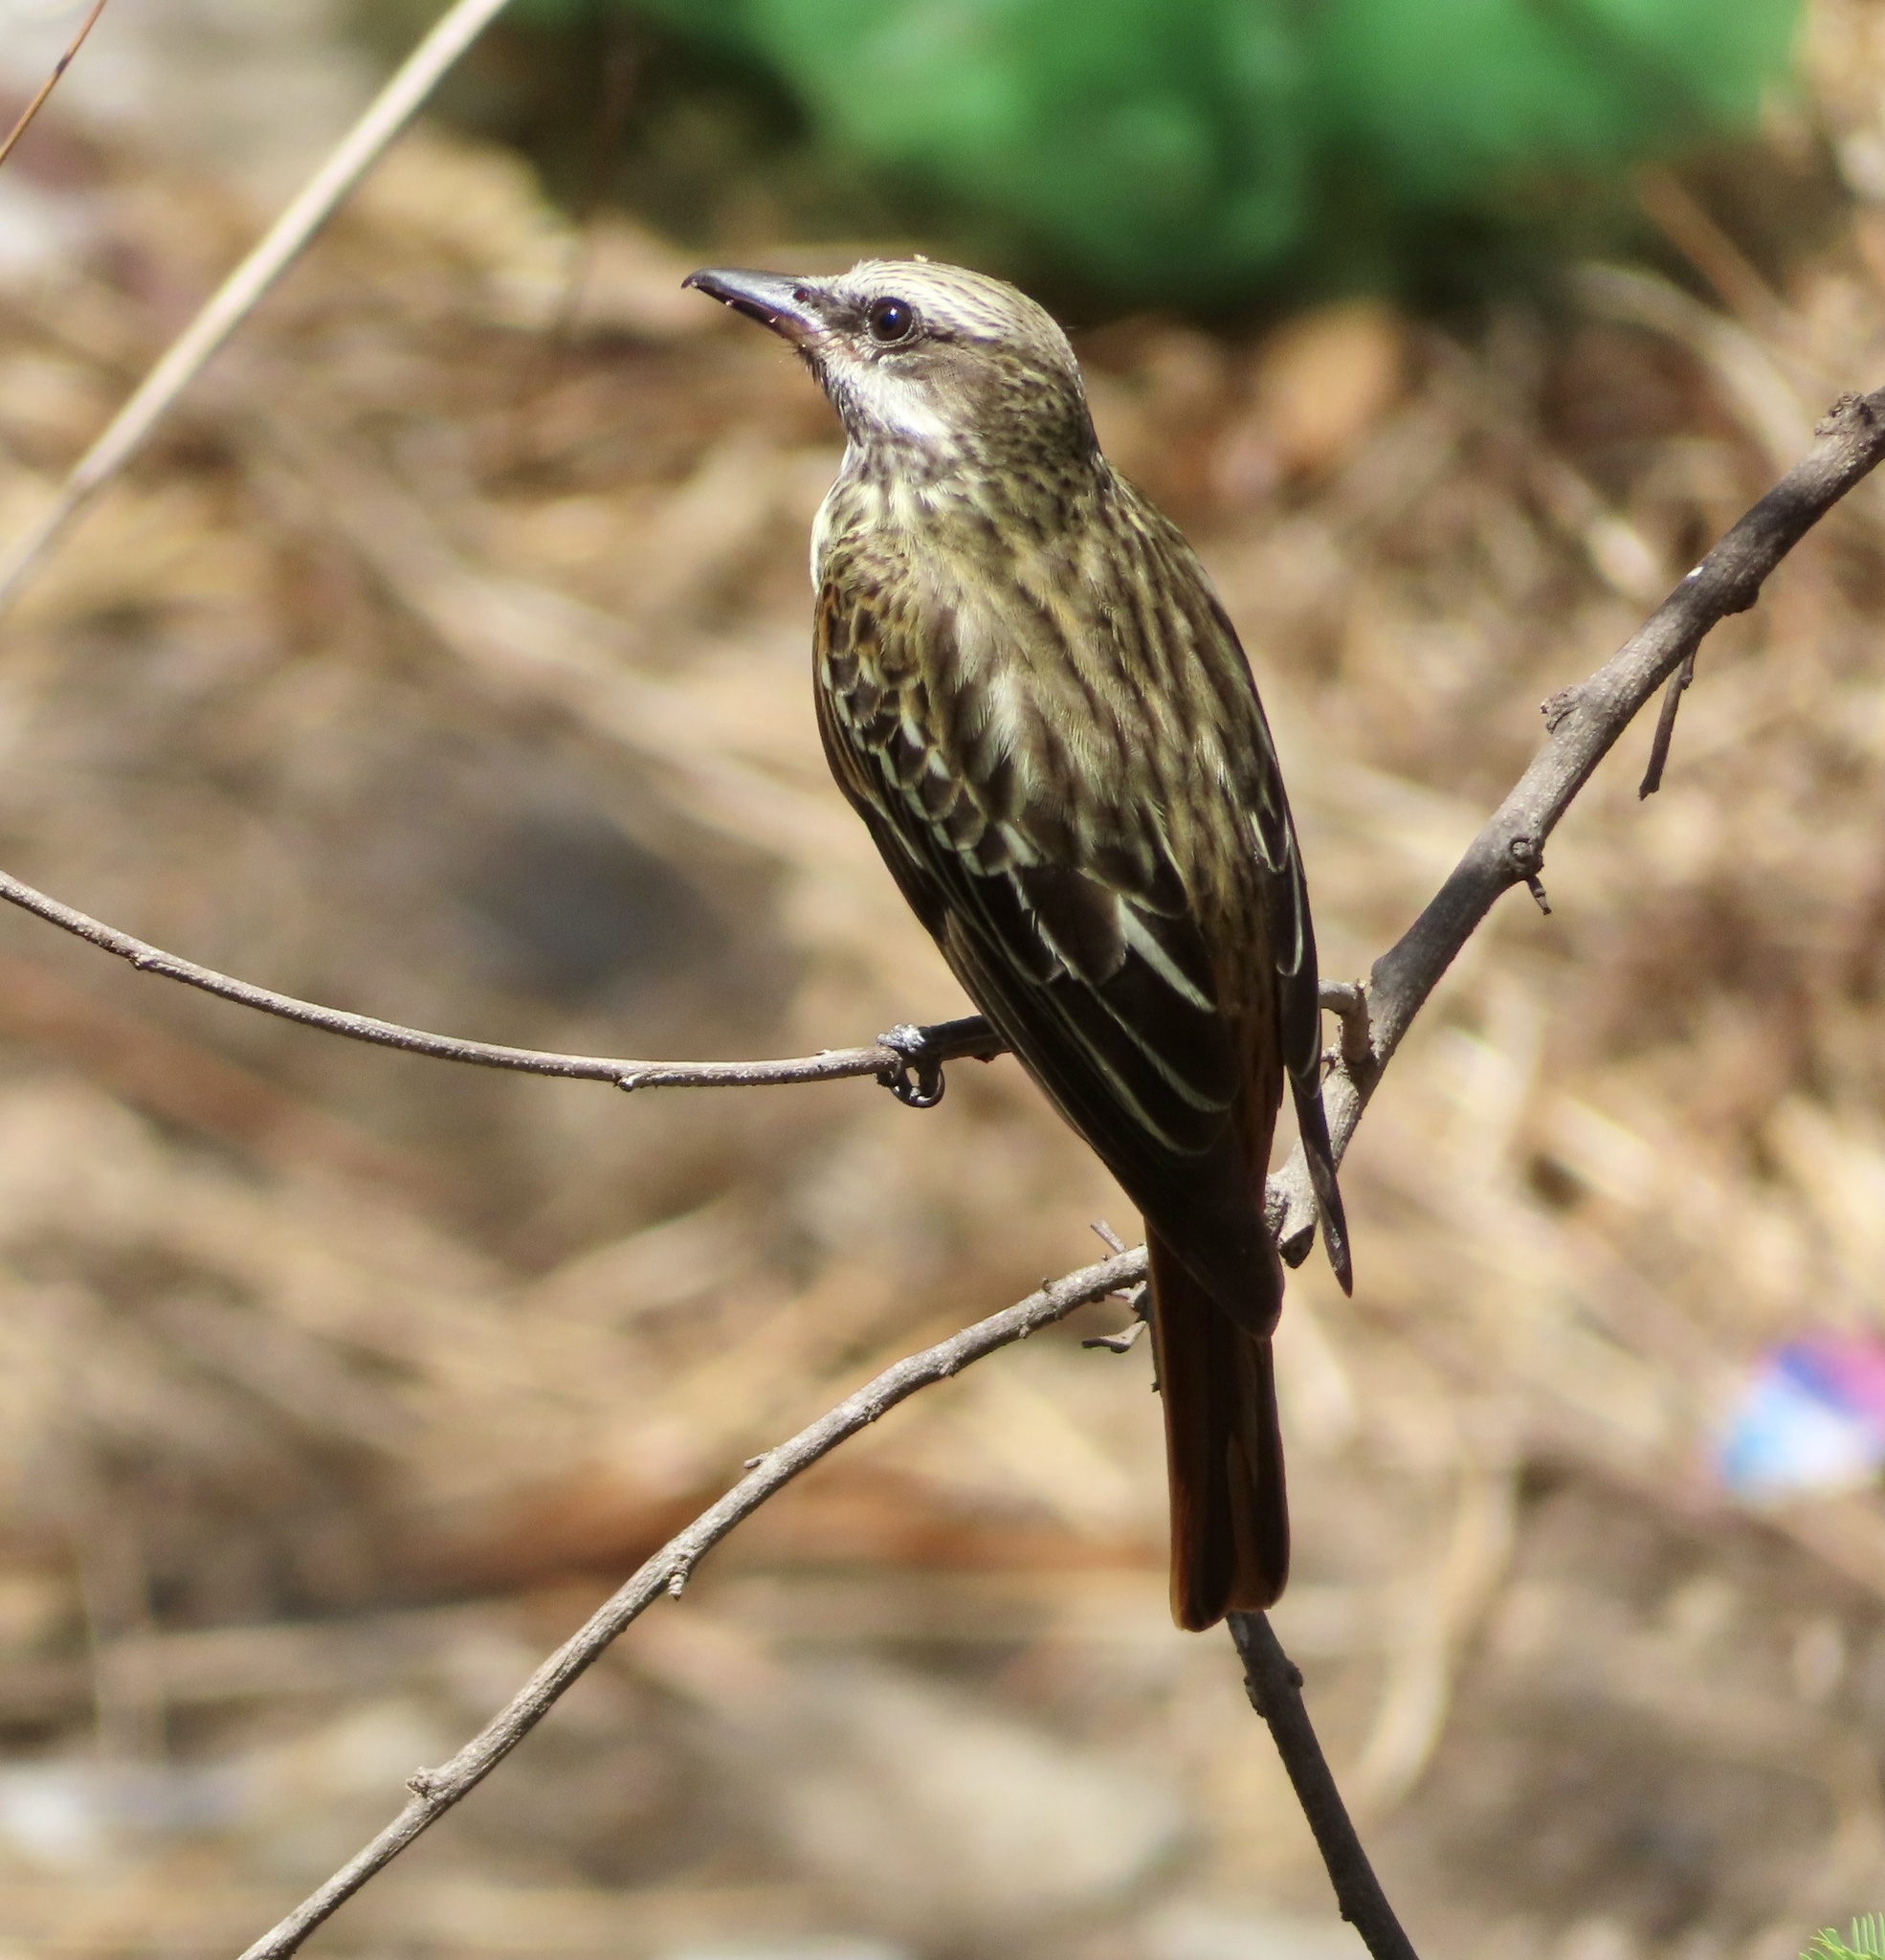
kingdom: Animalia
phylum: Chordata
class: Aves
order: Passeriformes
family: Tyrannidae
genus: Myiodynastes
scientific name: Myiodynastes luteiventris
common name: Sulphur-bellied flycatcher
